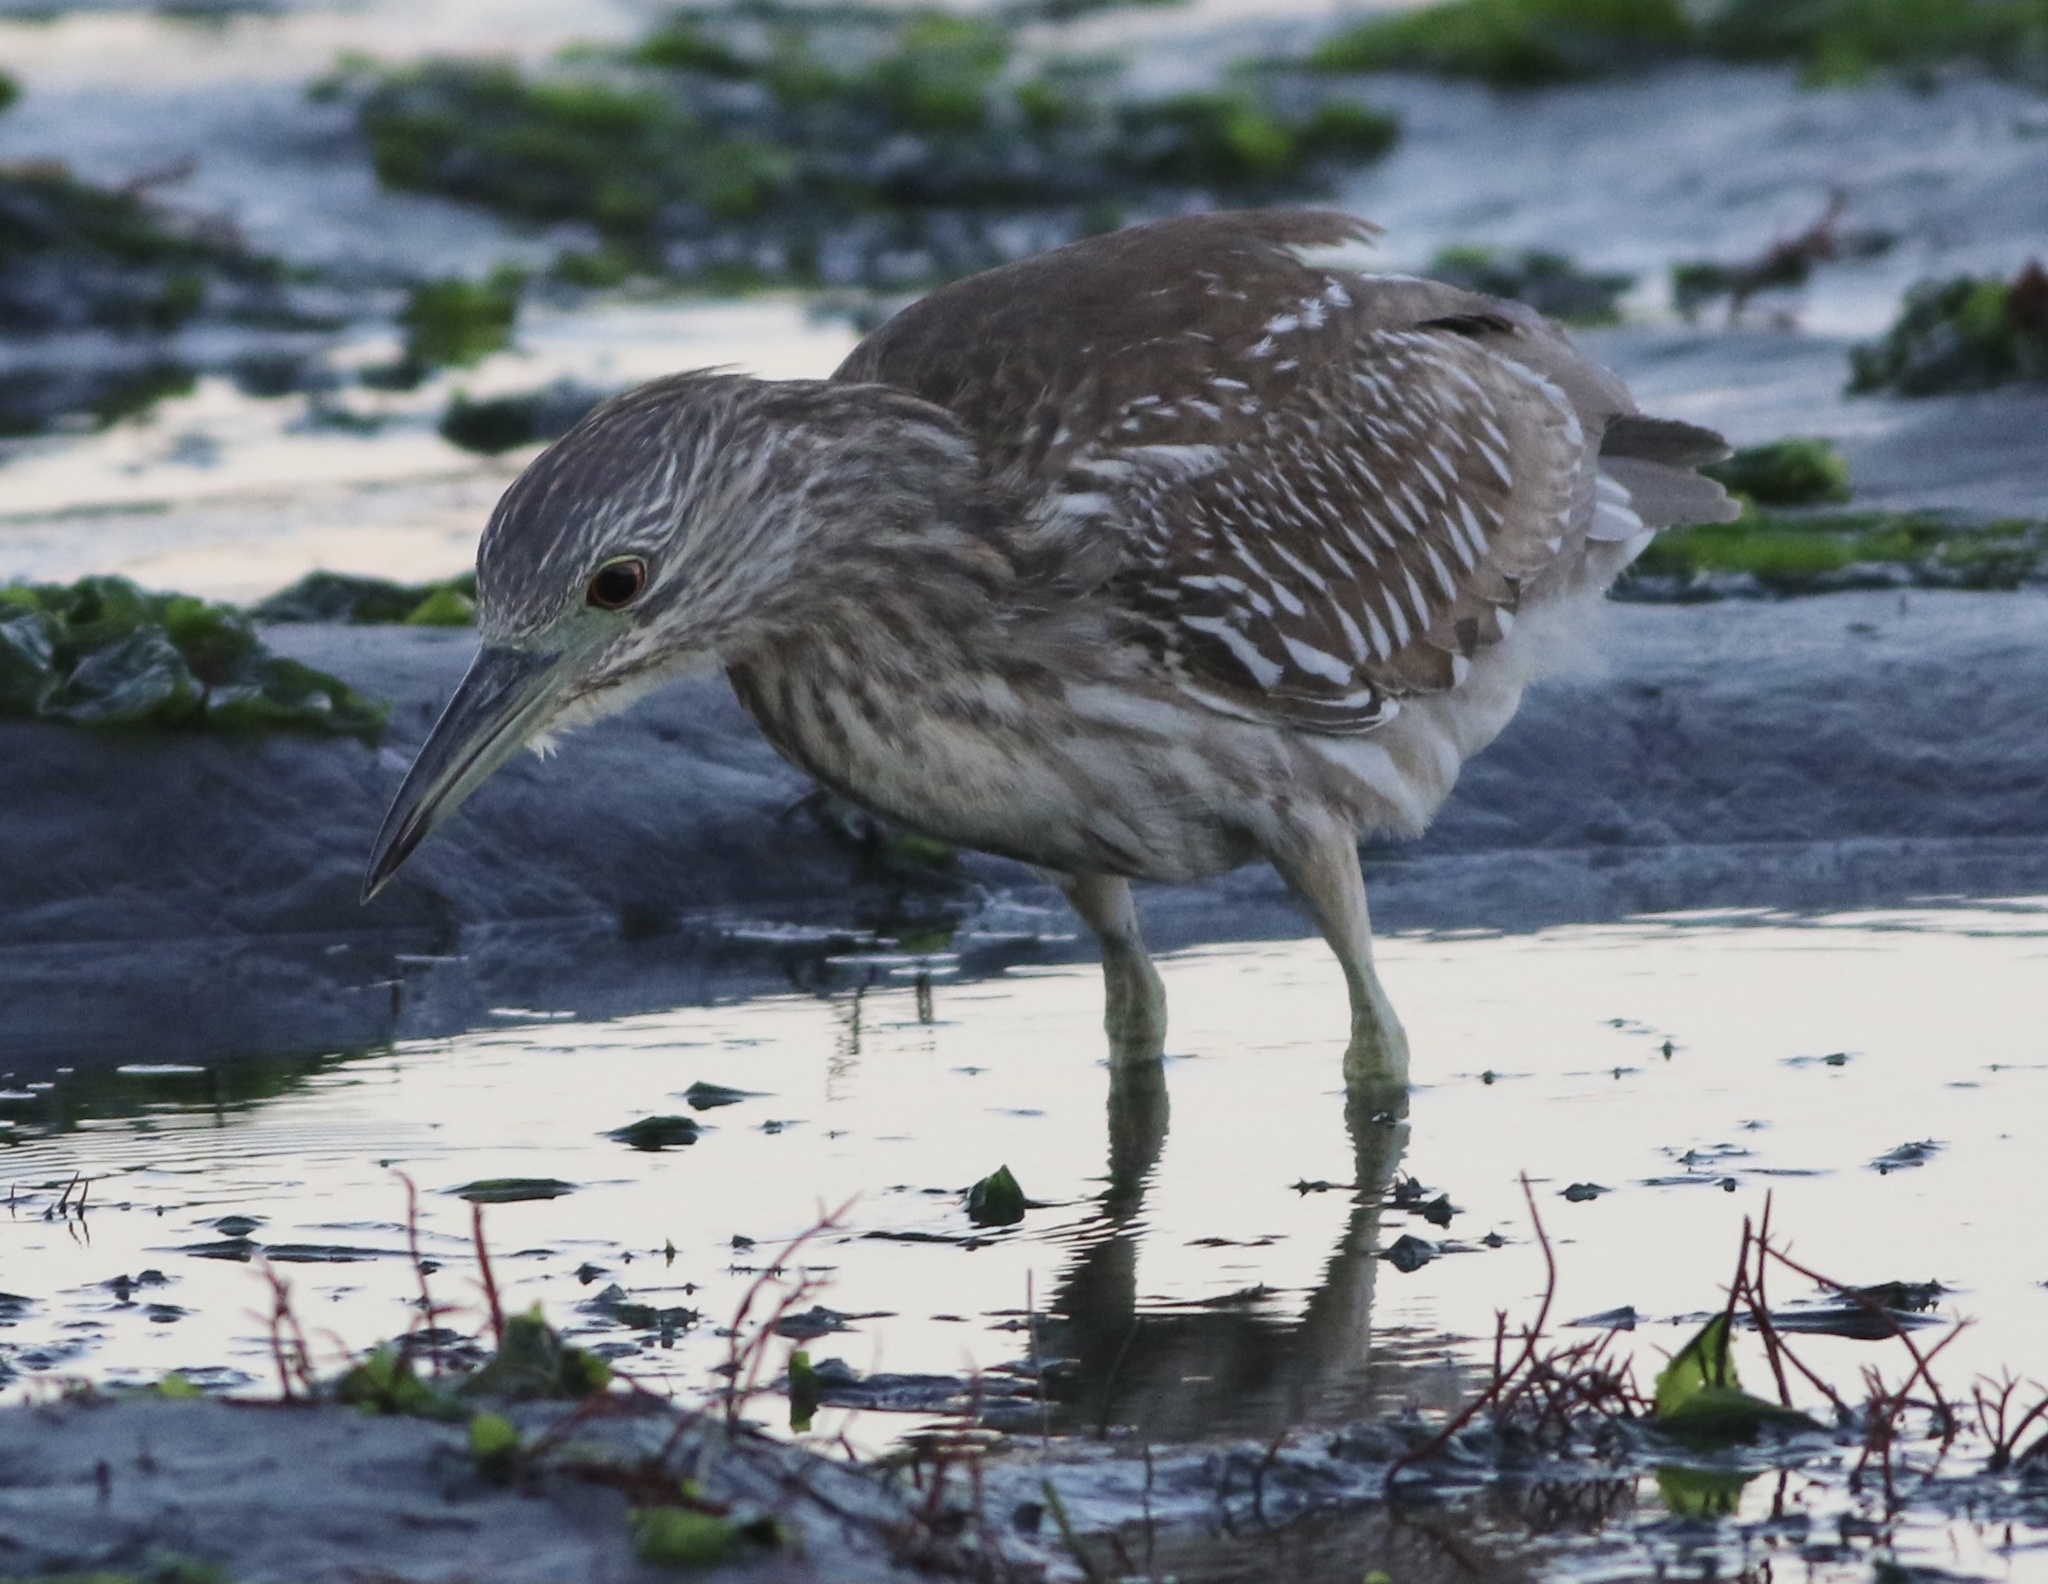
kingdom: Animalia
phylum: Chordata
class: Aves
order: Pelecaniformes
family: Ardeidae
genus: Nycticorax
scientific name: Nycticorax nycticorax
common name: Black-crowned night heron
